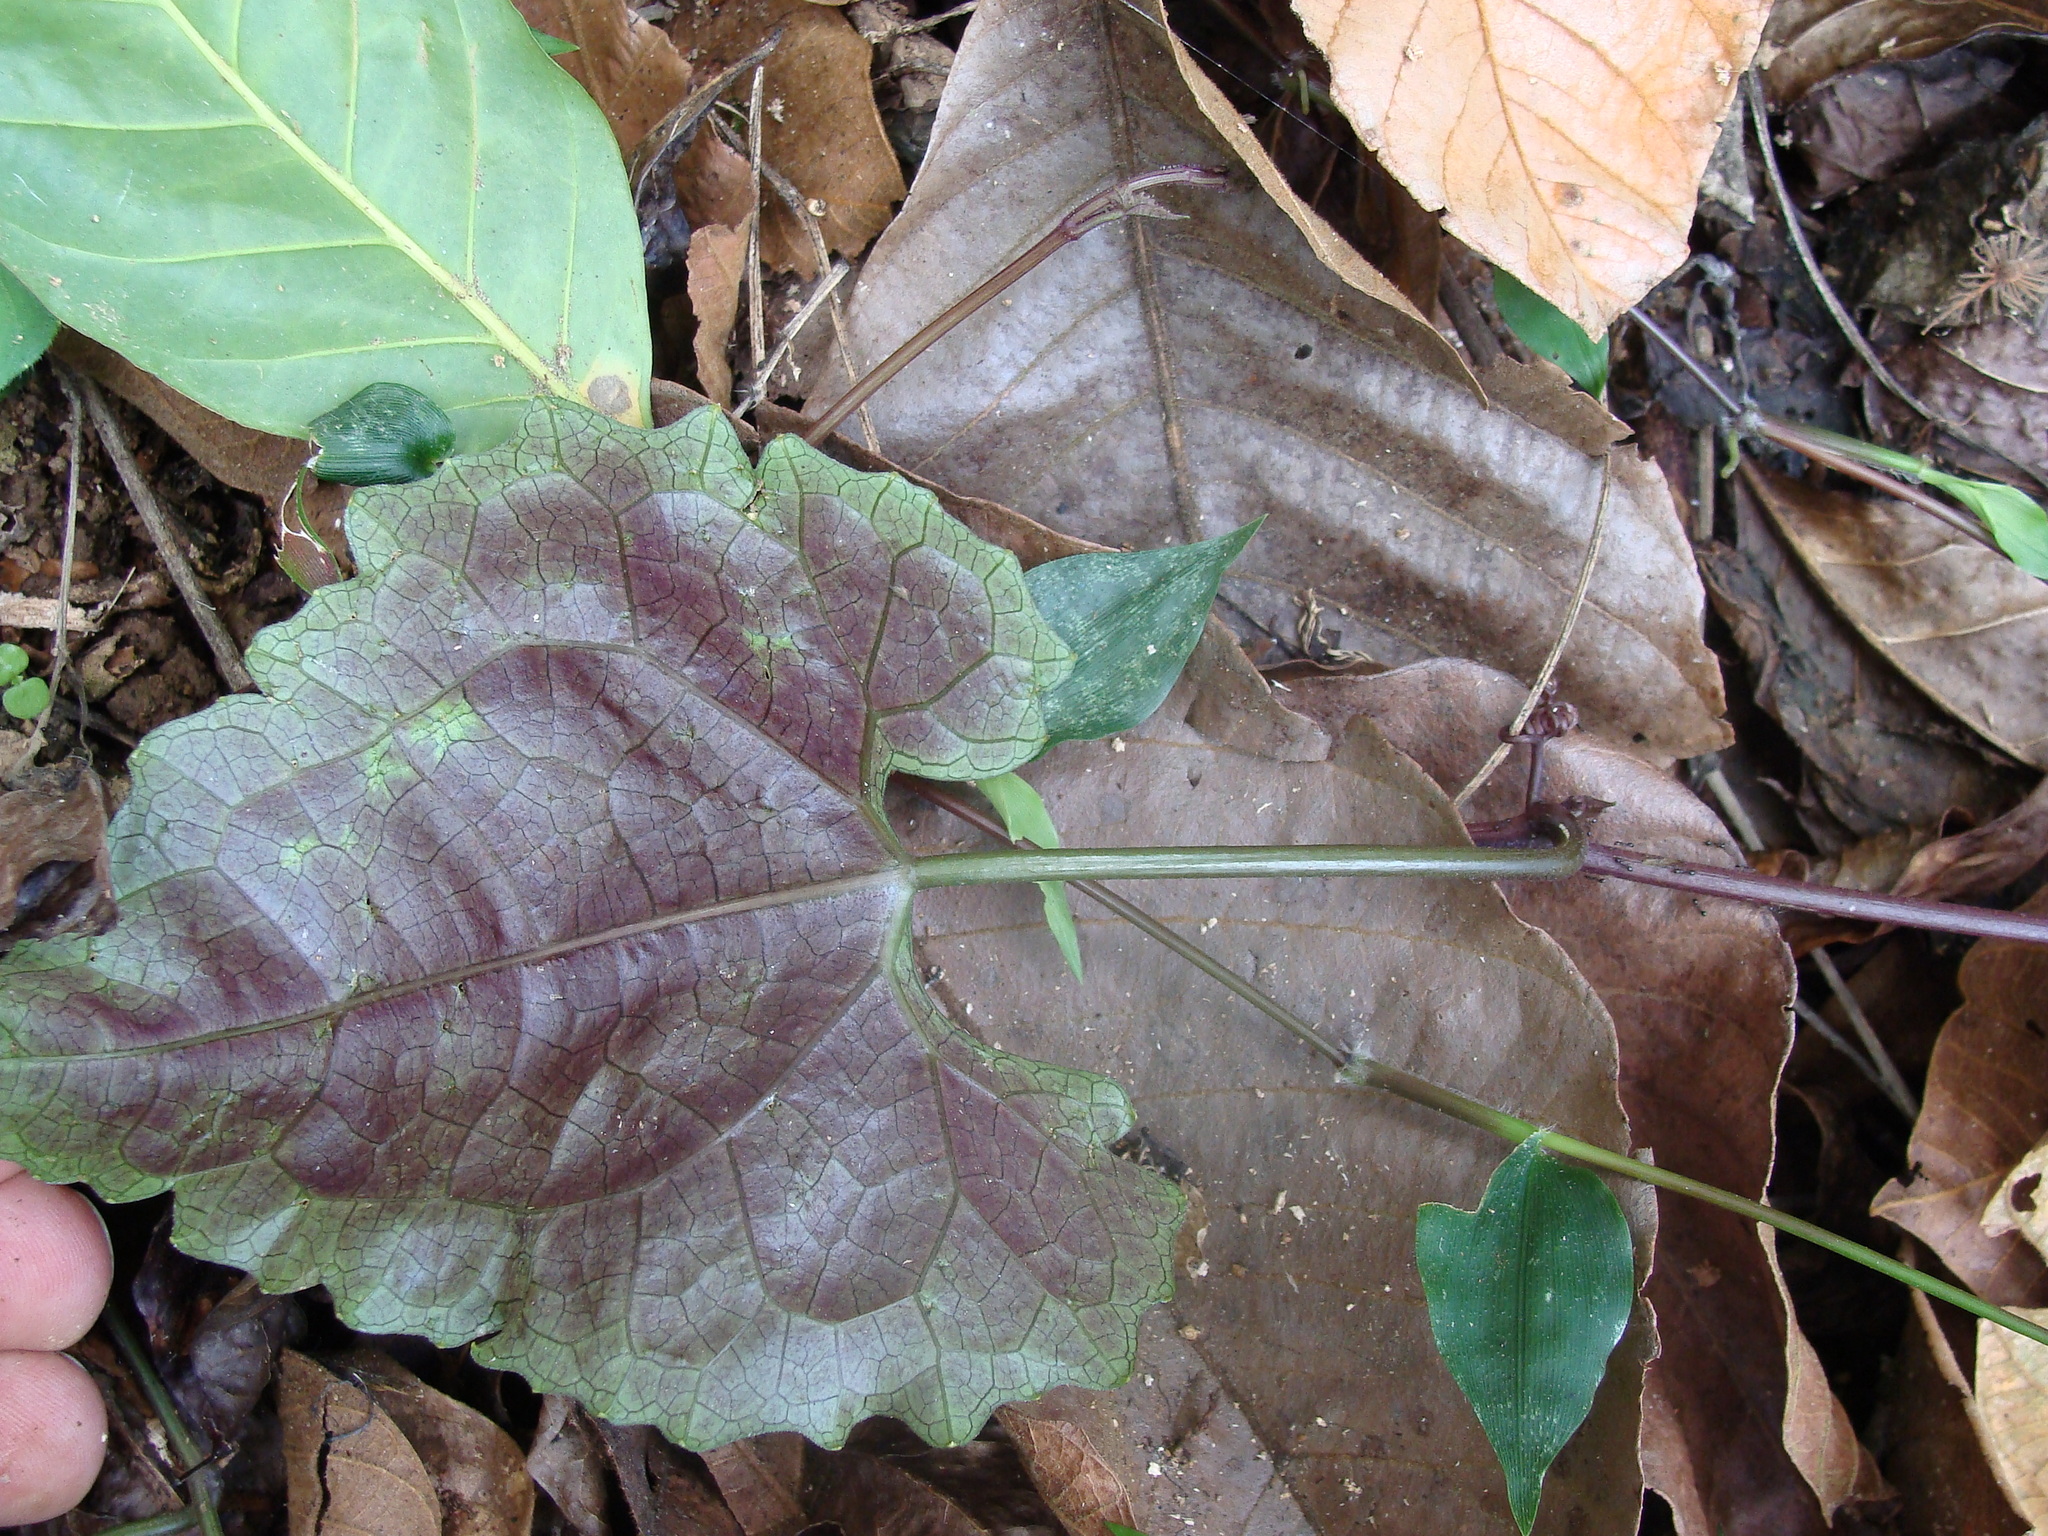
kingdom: Plantae
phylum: Tracheophyta
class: Magnoliopsida
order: Cucurbitales
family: Cucurbitaceae
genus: Cayaponia
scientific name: Cayaponia longiloba
